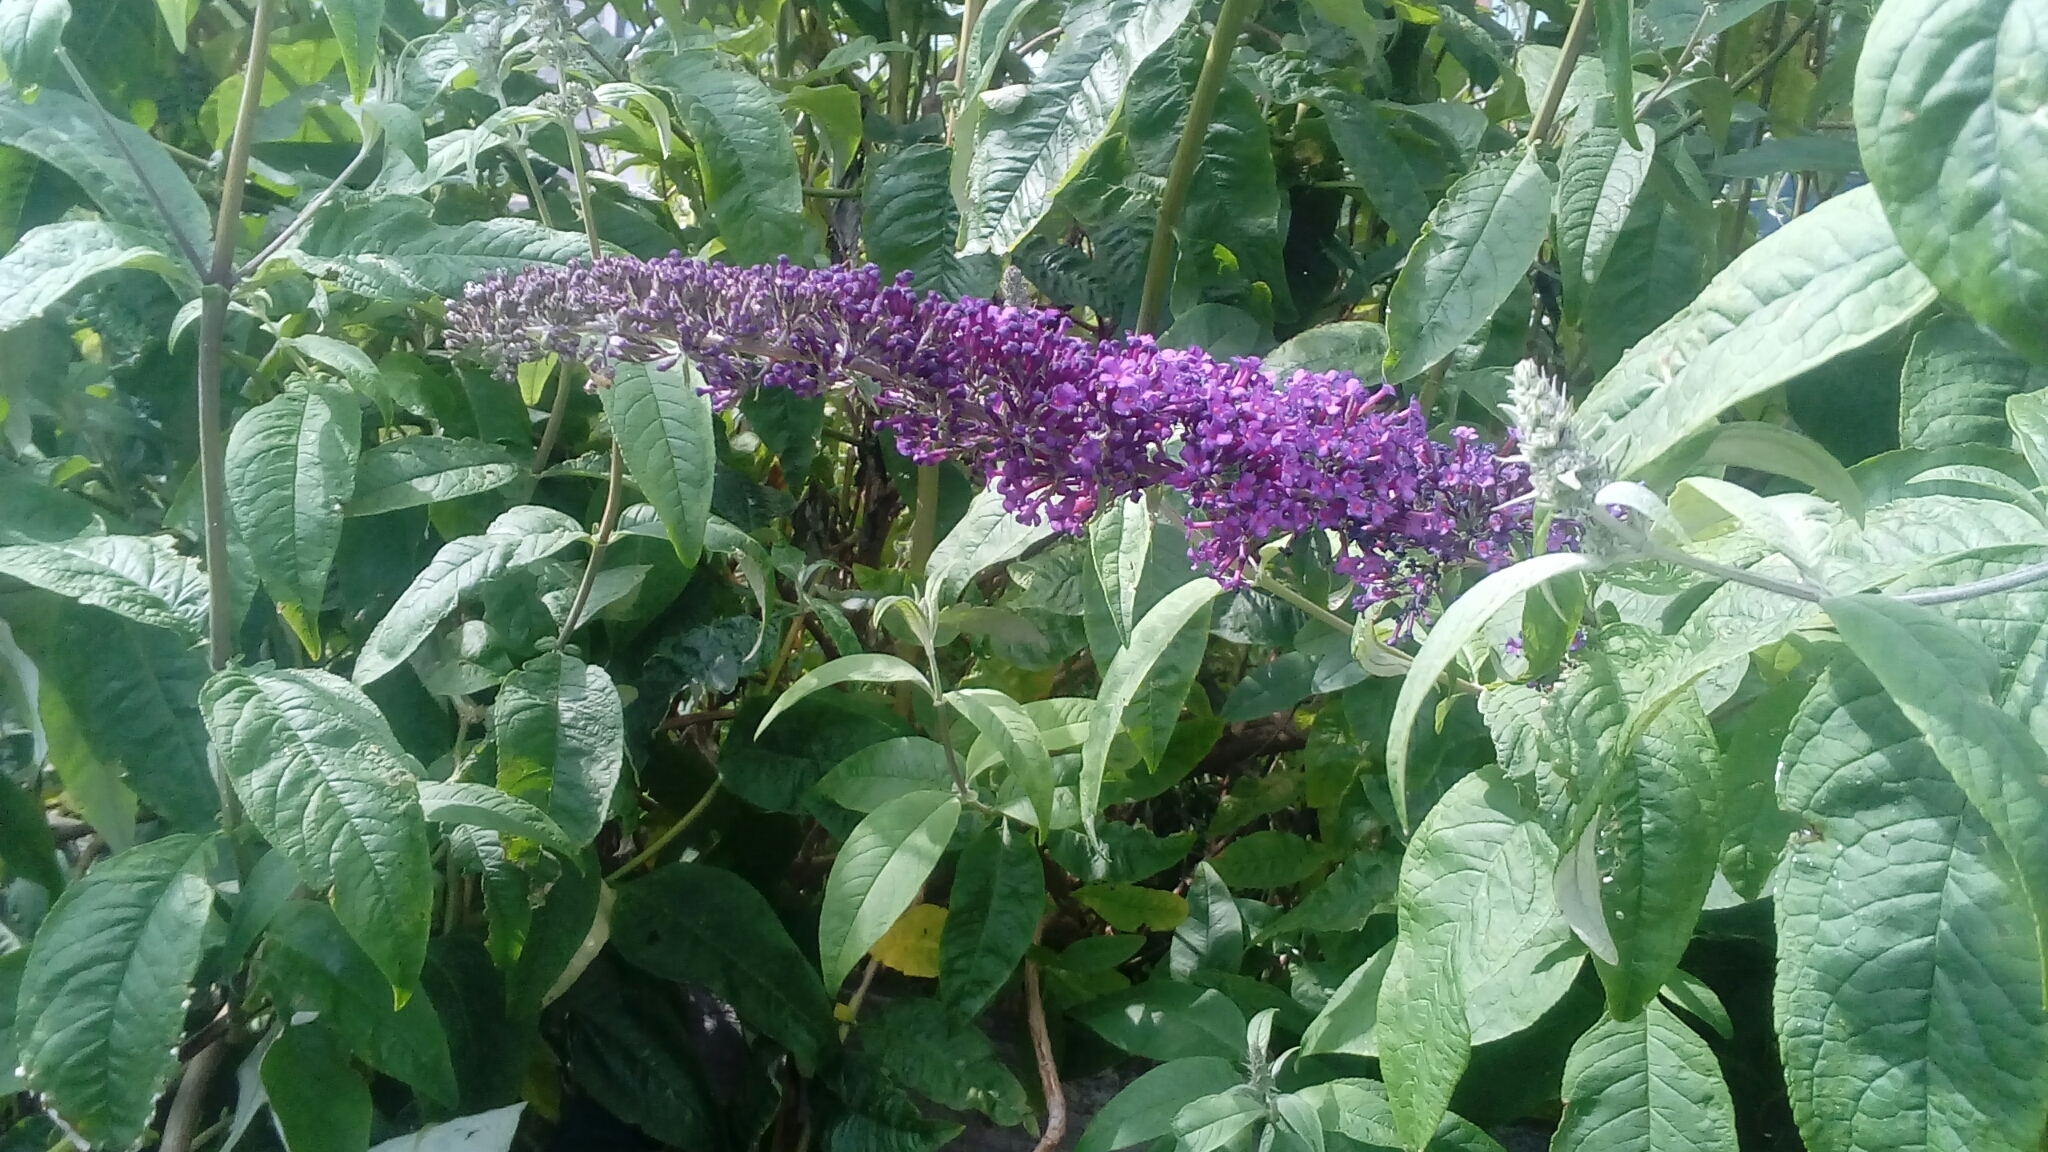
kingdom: Plantae
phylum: Tracheophyta
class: Magnoliopsida
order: Lamiales
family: Scrophulariaceae
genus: Buddleja
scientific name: Buddleja davidii
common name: Butterfly-bush
